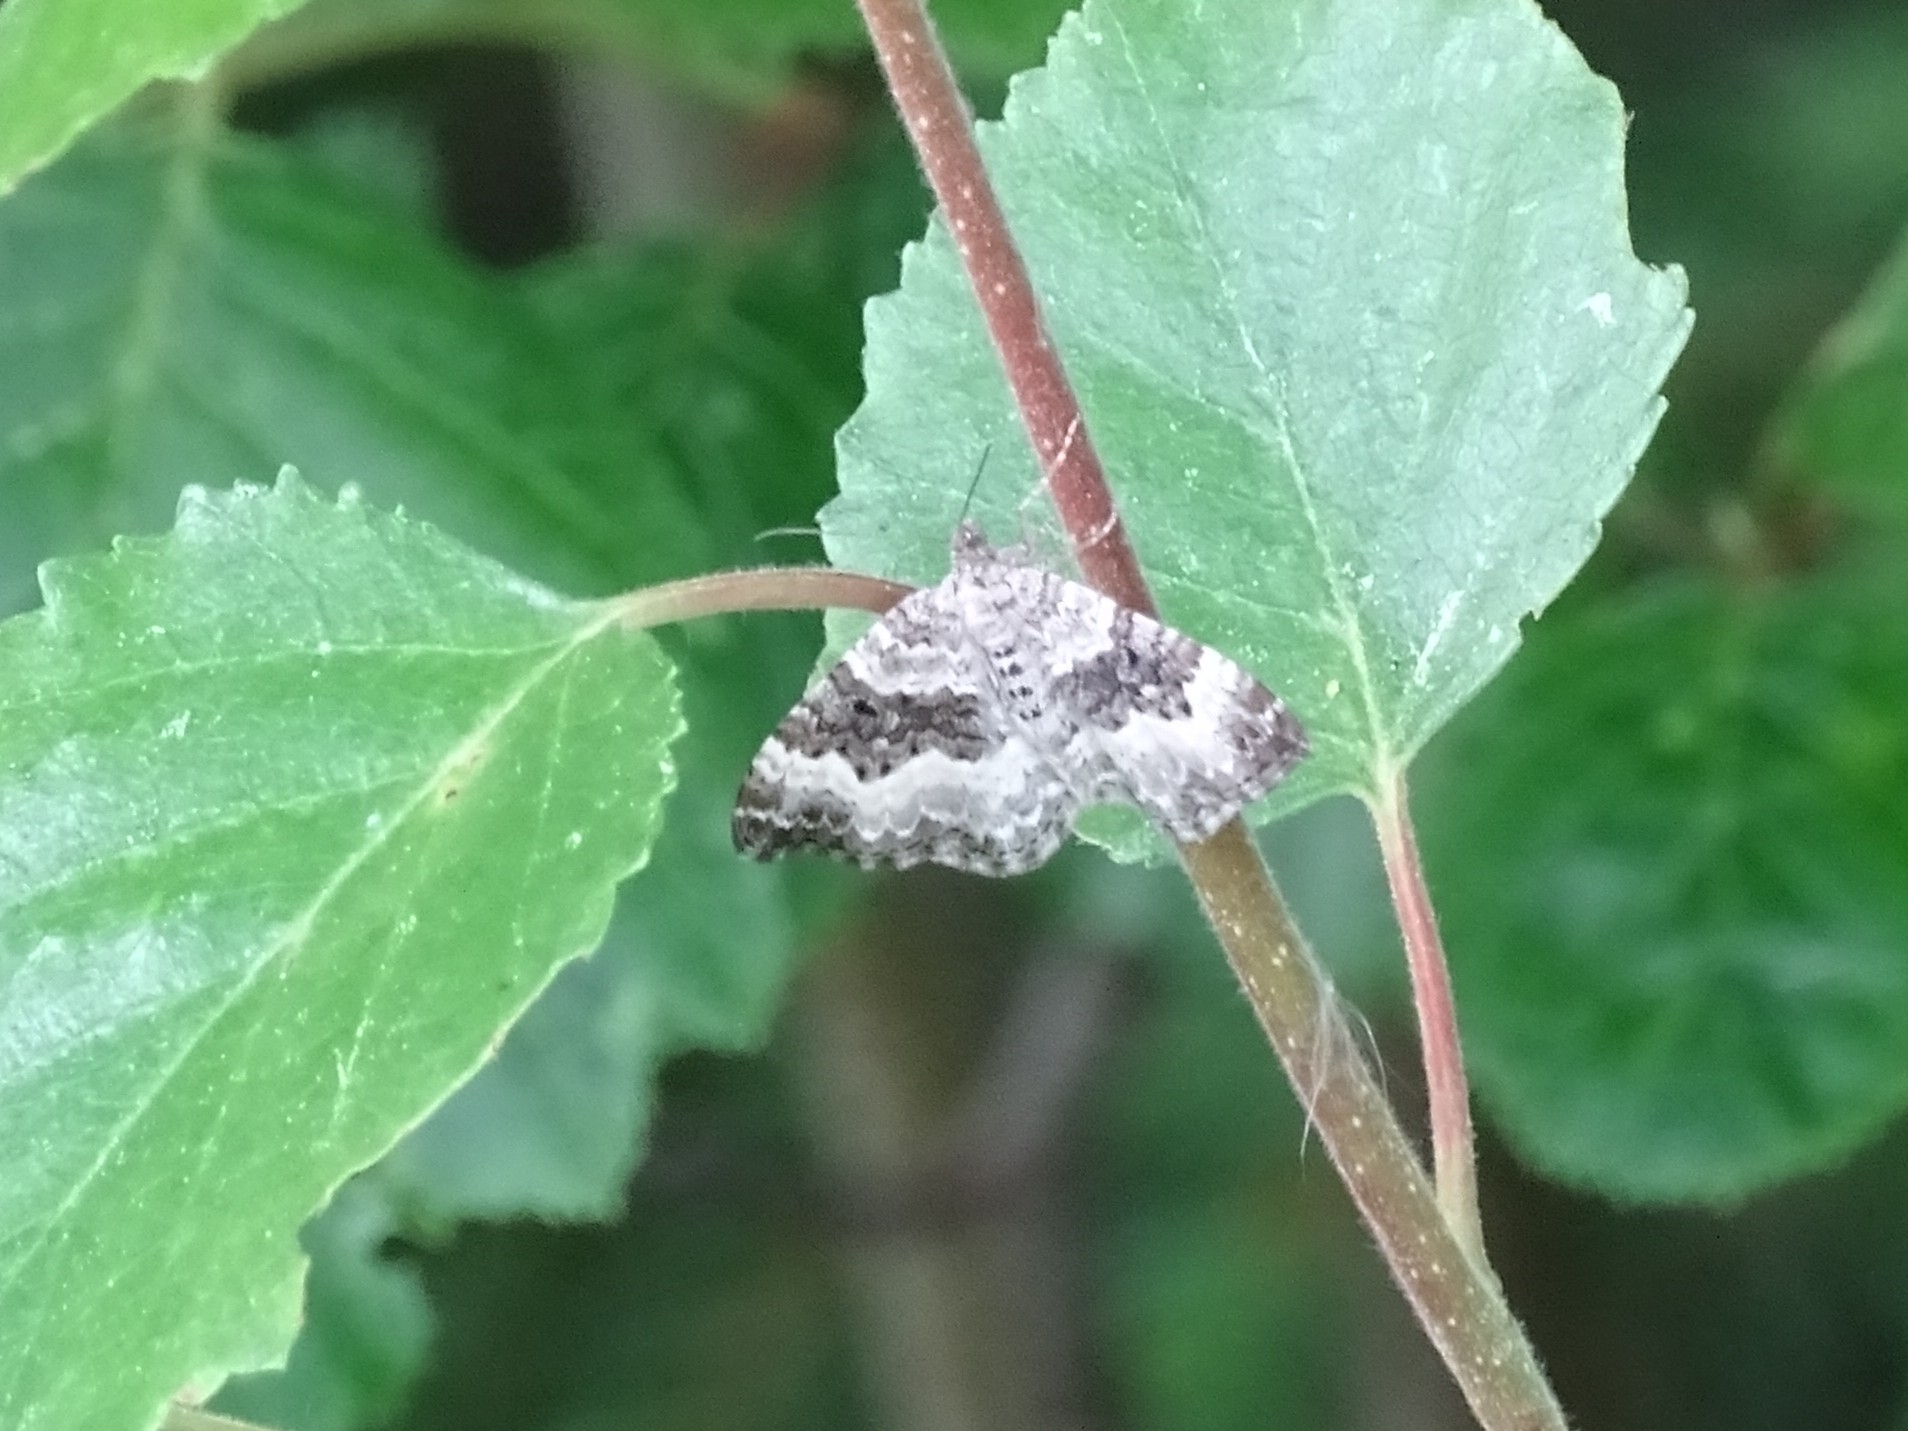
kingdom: Animalia
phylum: Arthropoda
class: Insecta
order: Lepidoptera
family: Geometridae
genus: Epirrhoe
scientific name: Epirrhoe alternata
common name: Common carpet
